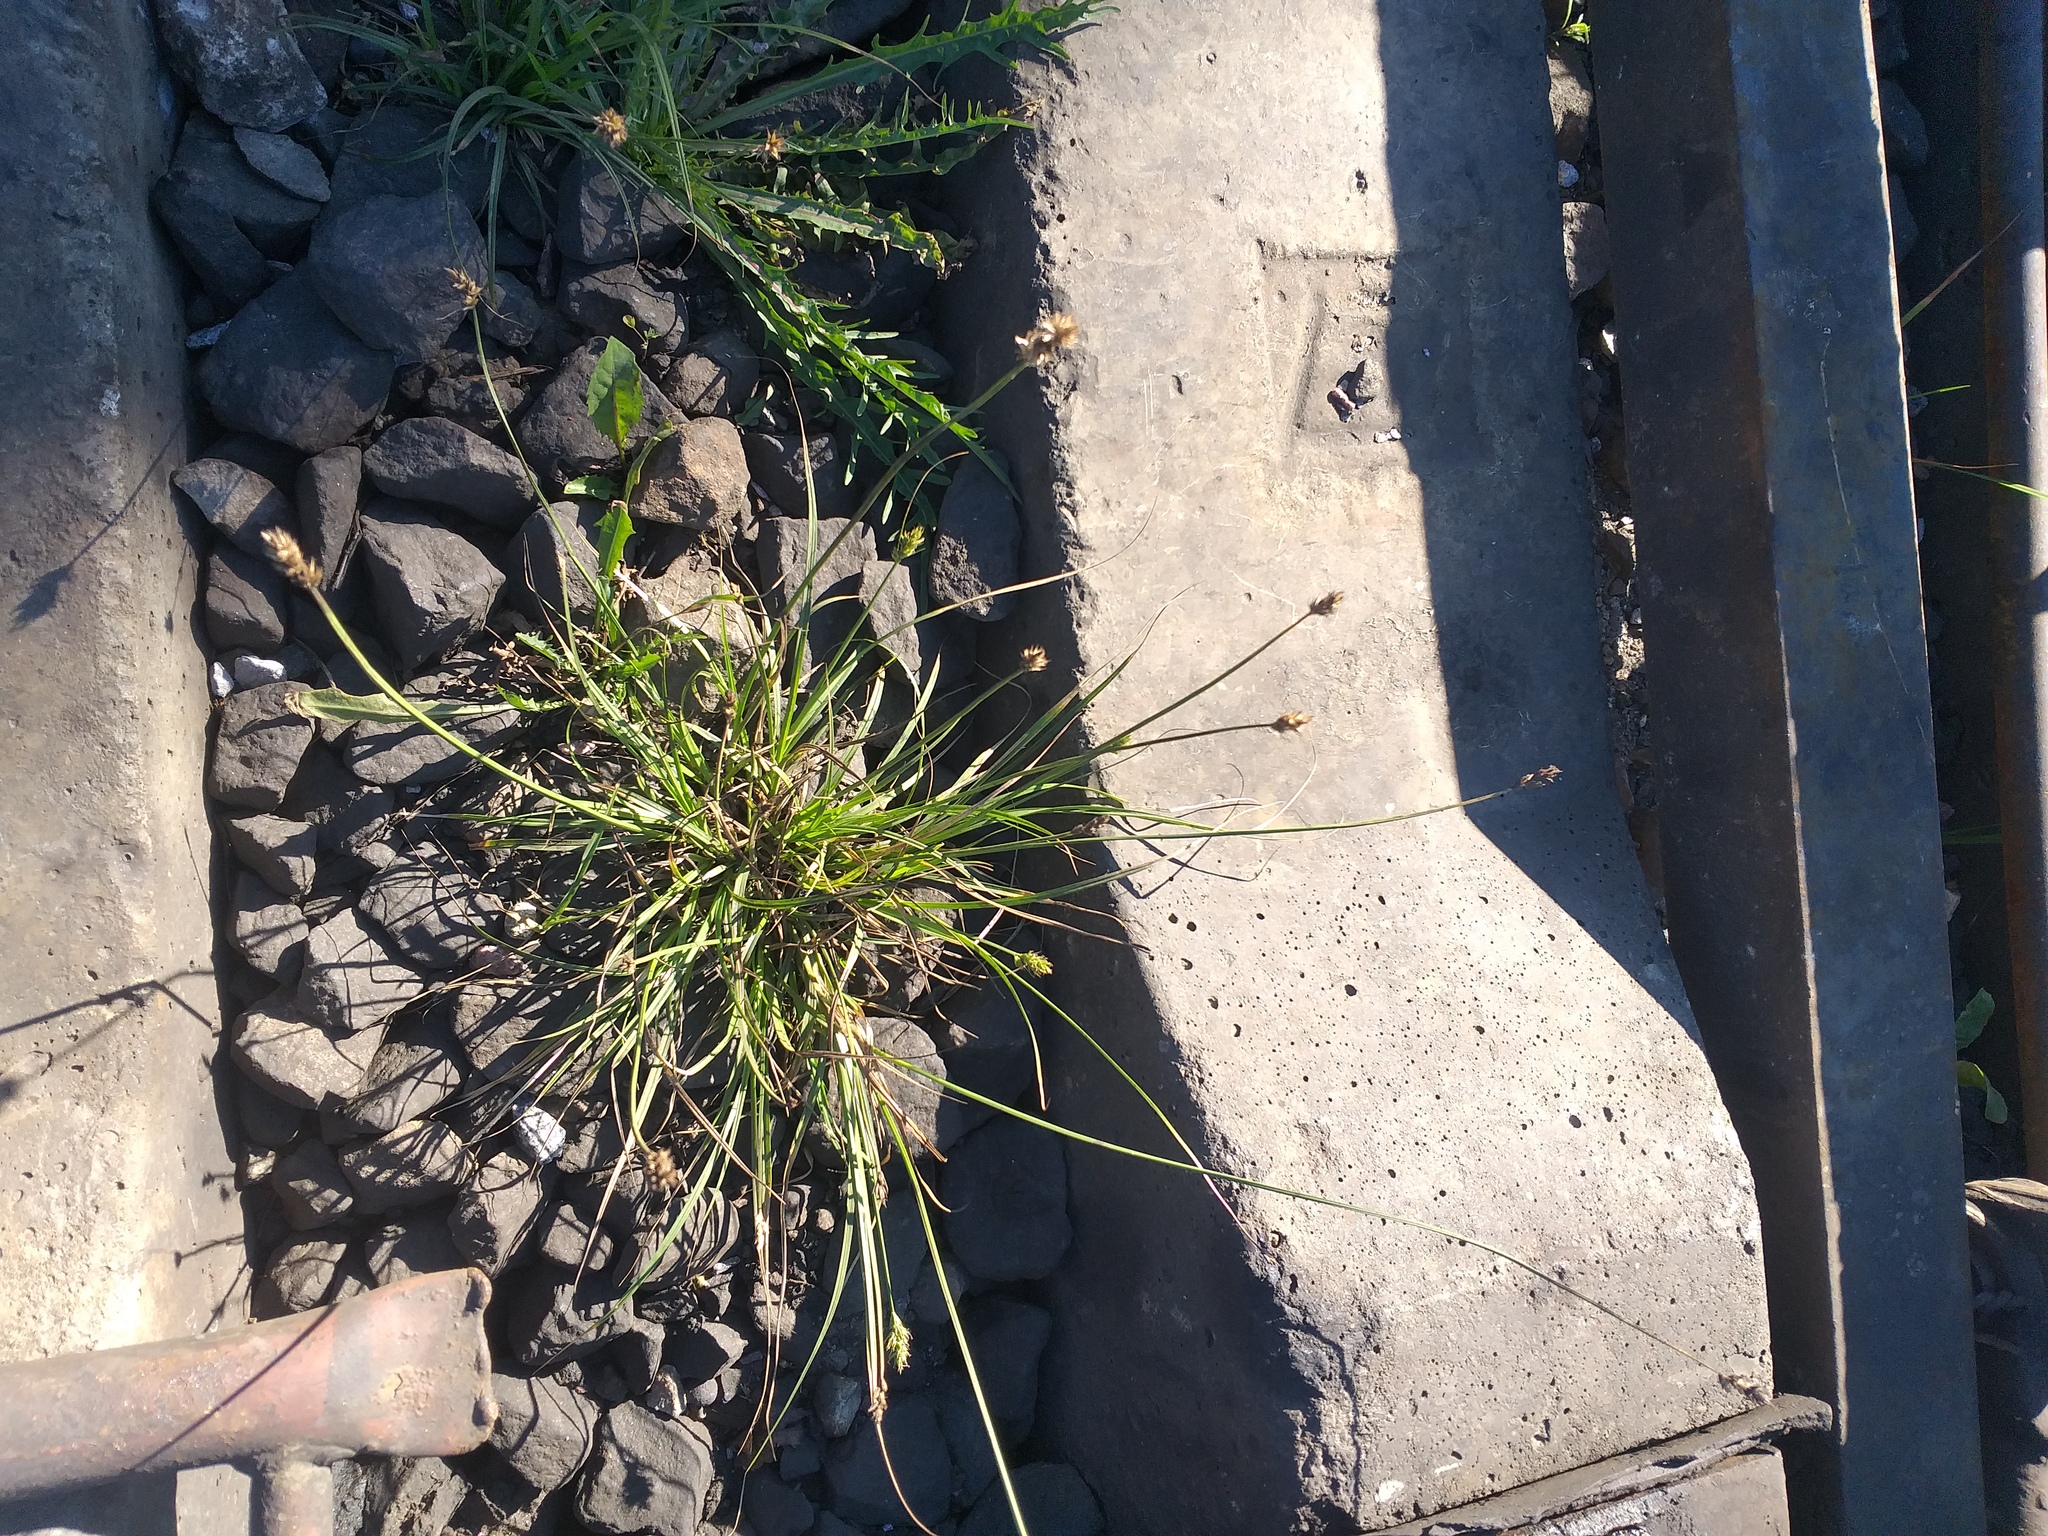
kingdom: Plantae
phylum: Tracheophyta
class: Liliopsida
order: Poales
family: Cyperaceae
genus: Carex
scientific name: Carex spicata
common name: Spiked sedge
